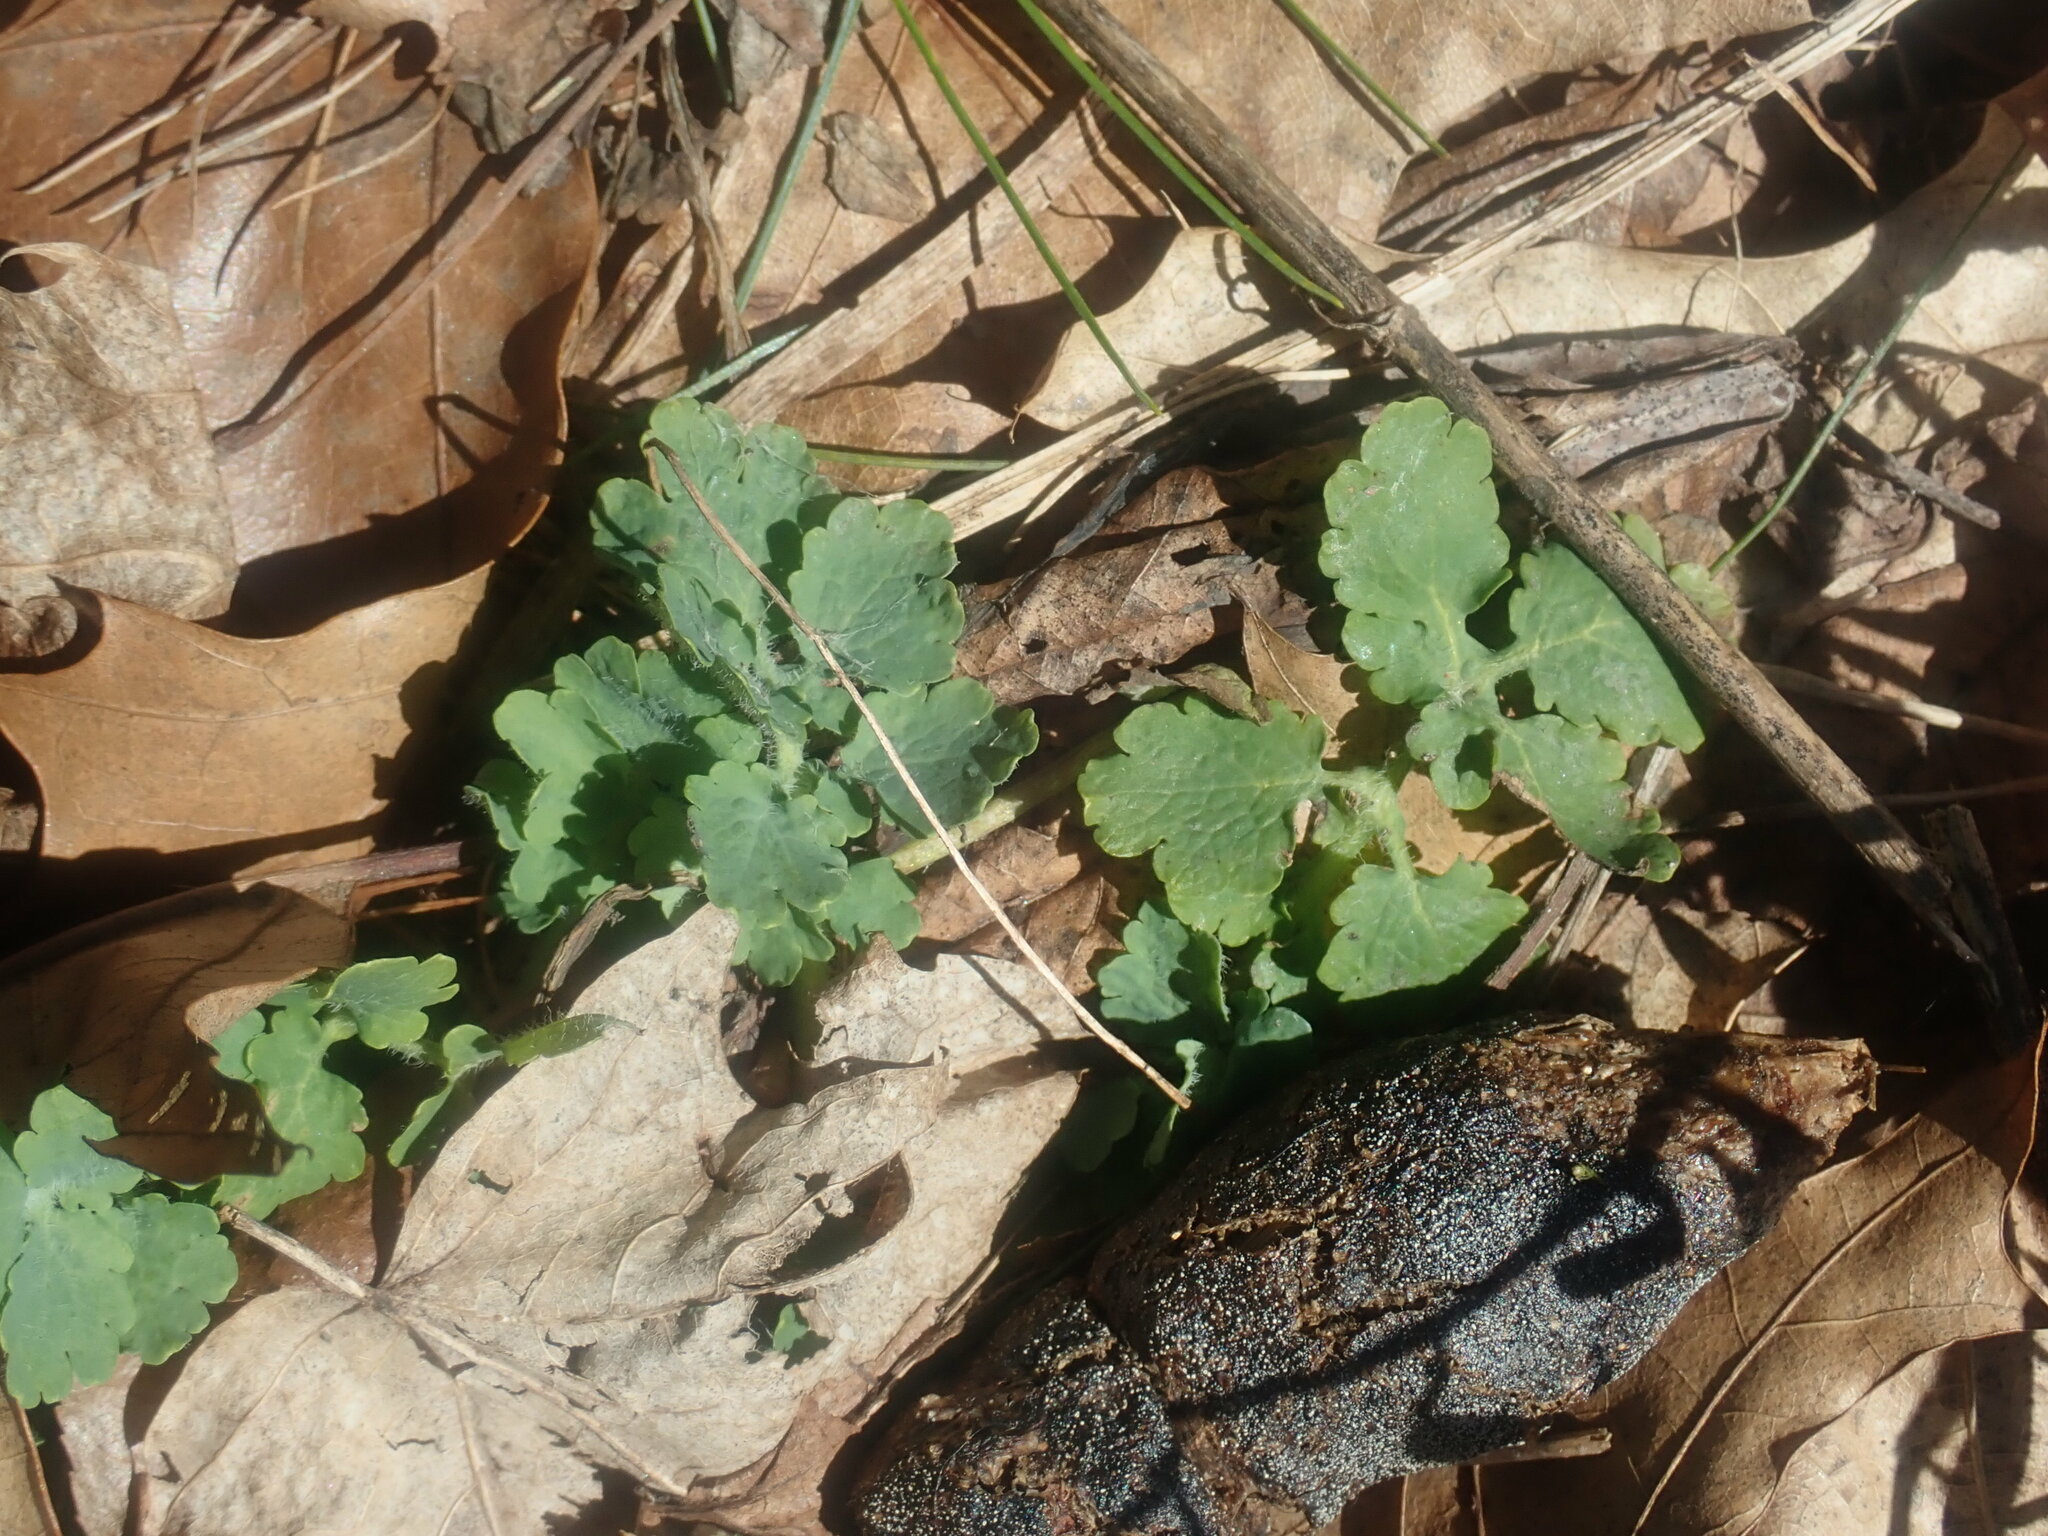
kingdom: Plantae
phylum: Tracheophyta
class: Magnoliopsida
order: Ranunculales
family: Papaveraceae
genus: Chelidonium
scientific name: Chelidonium majus
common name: Greater celandine
